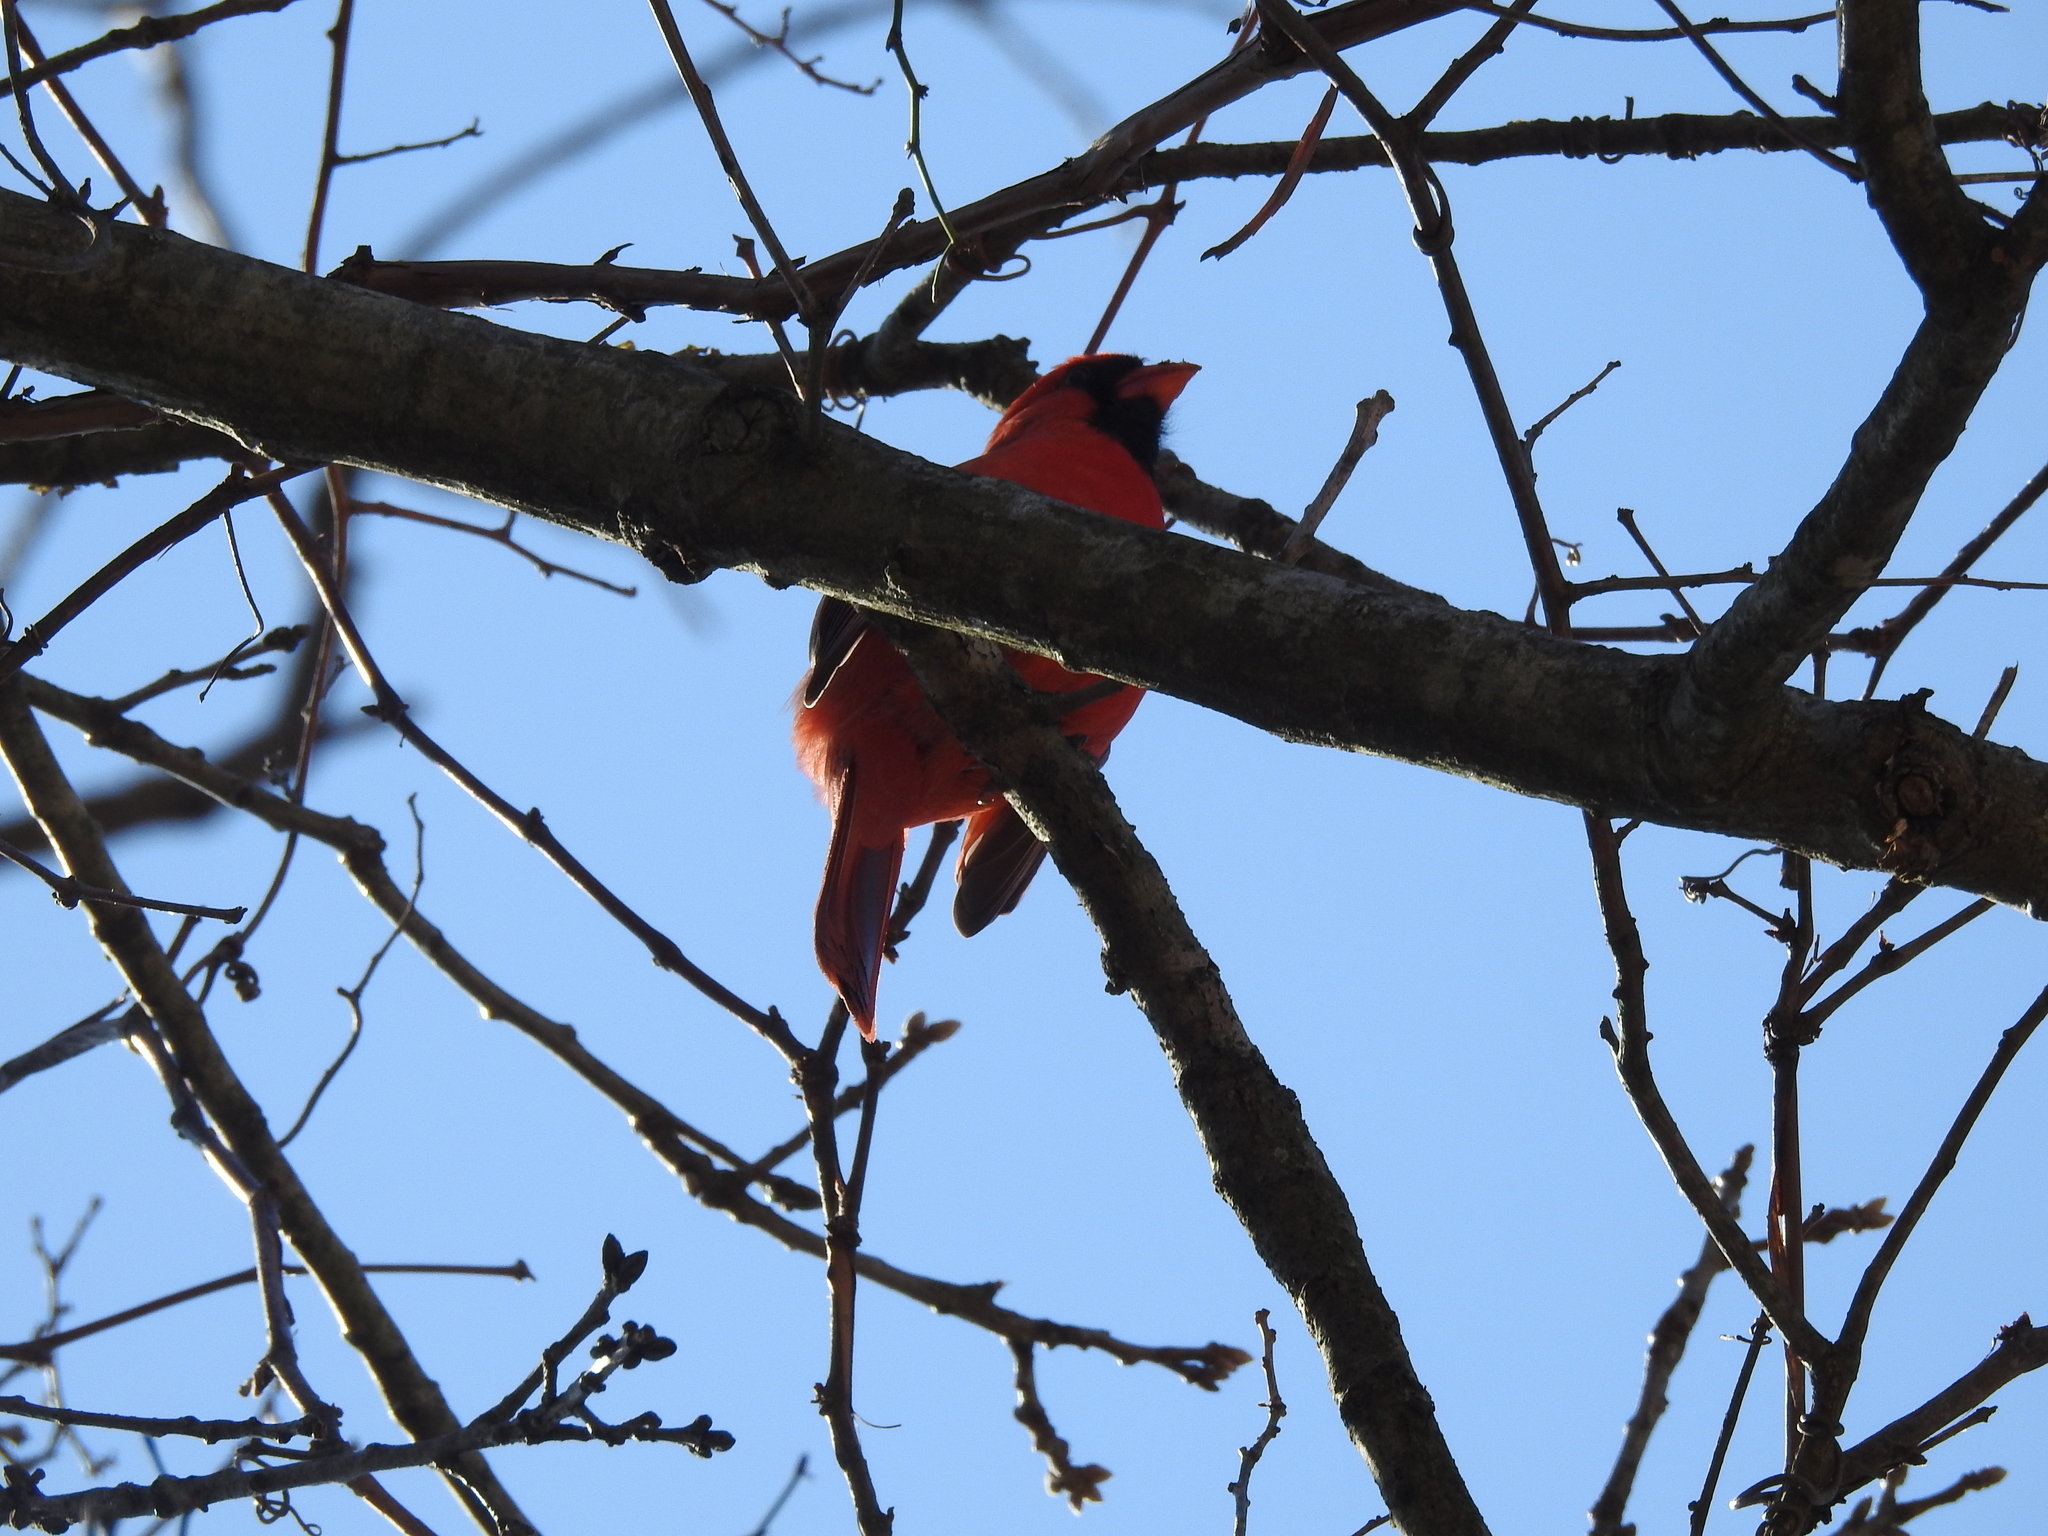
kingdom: Animalia
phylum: Chordata
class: Aves
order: Passeriformes
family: Cardinalidae
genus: Cardinalis
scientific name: Cardinalis cardinalis
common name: Northern cardinal
